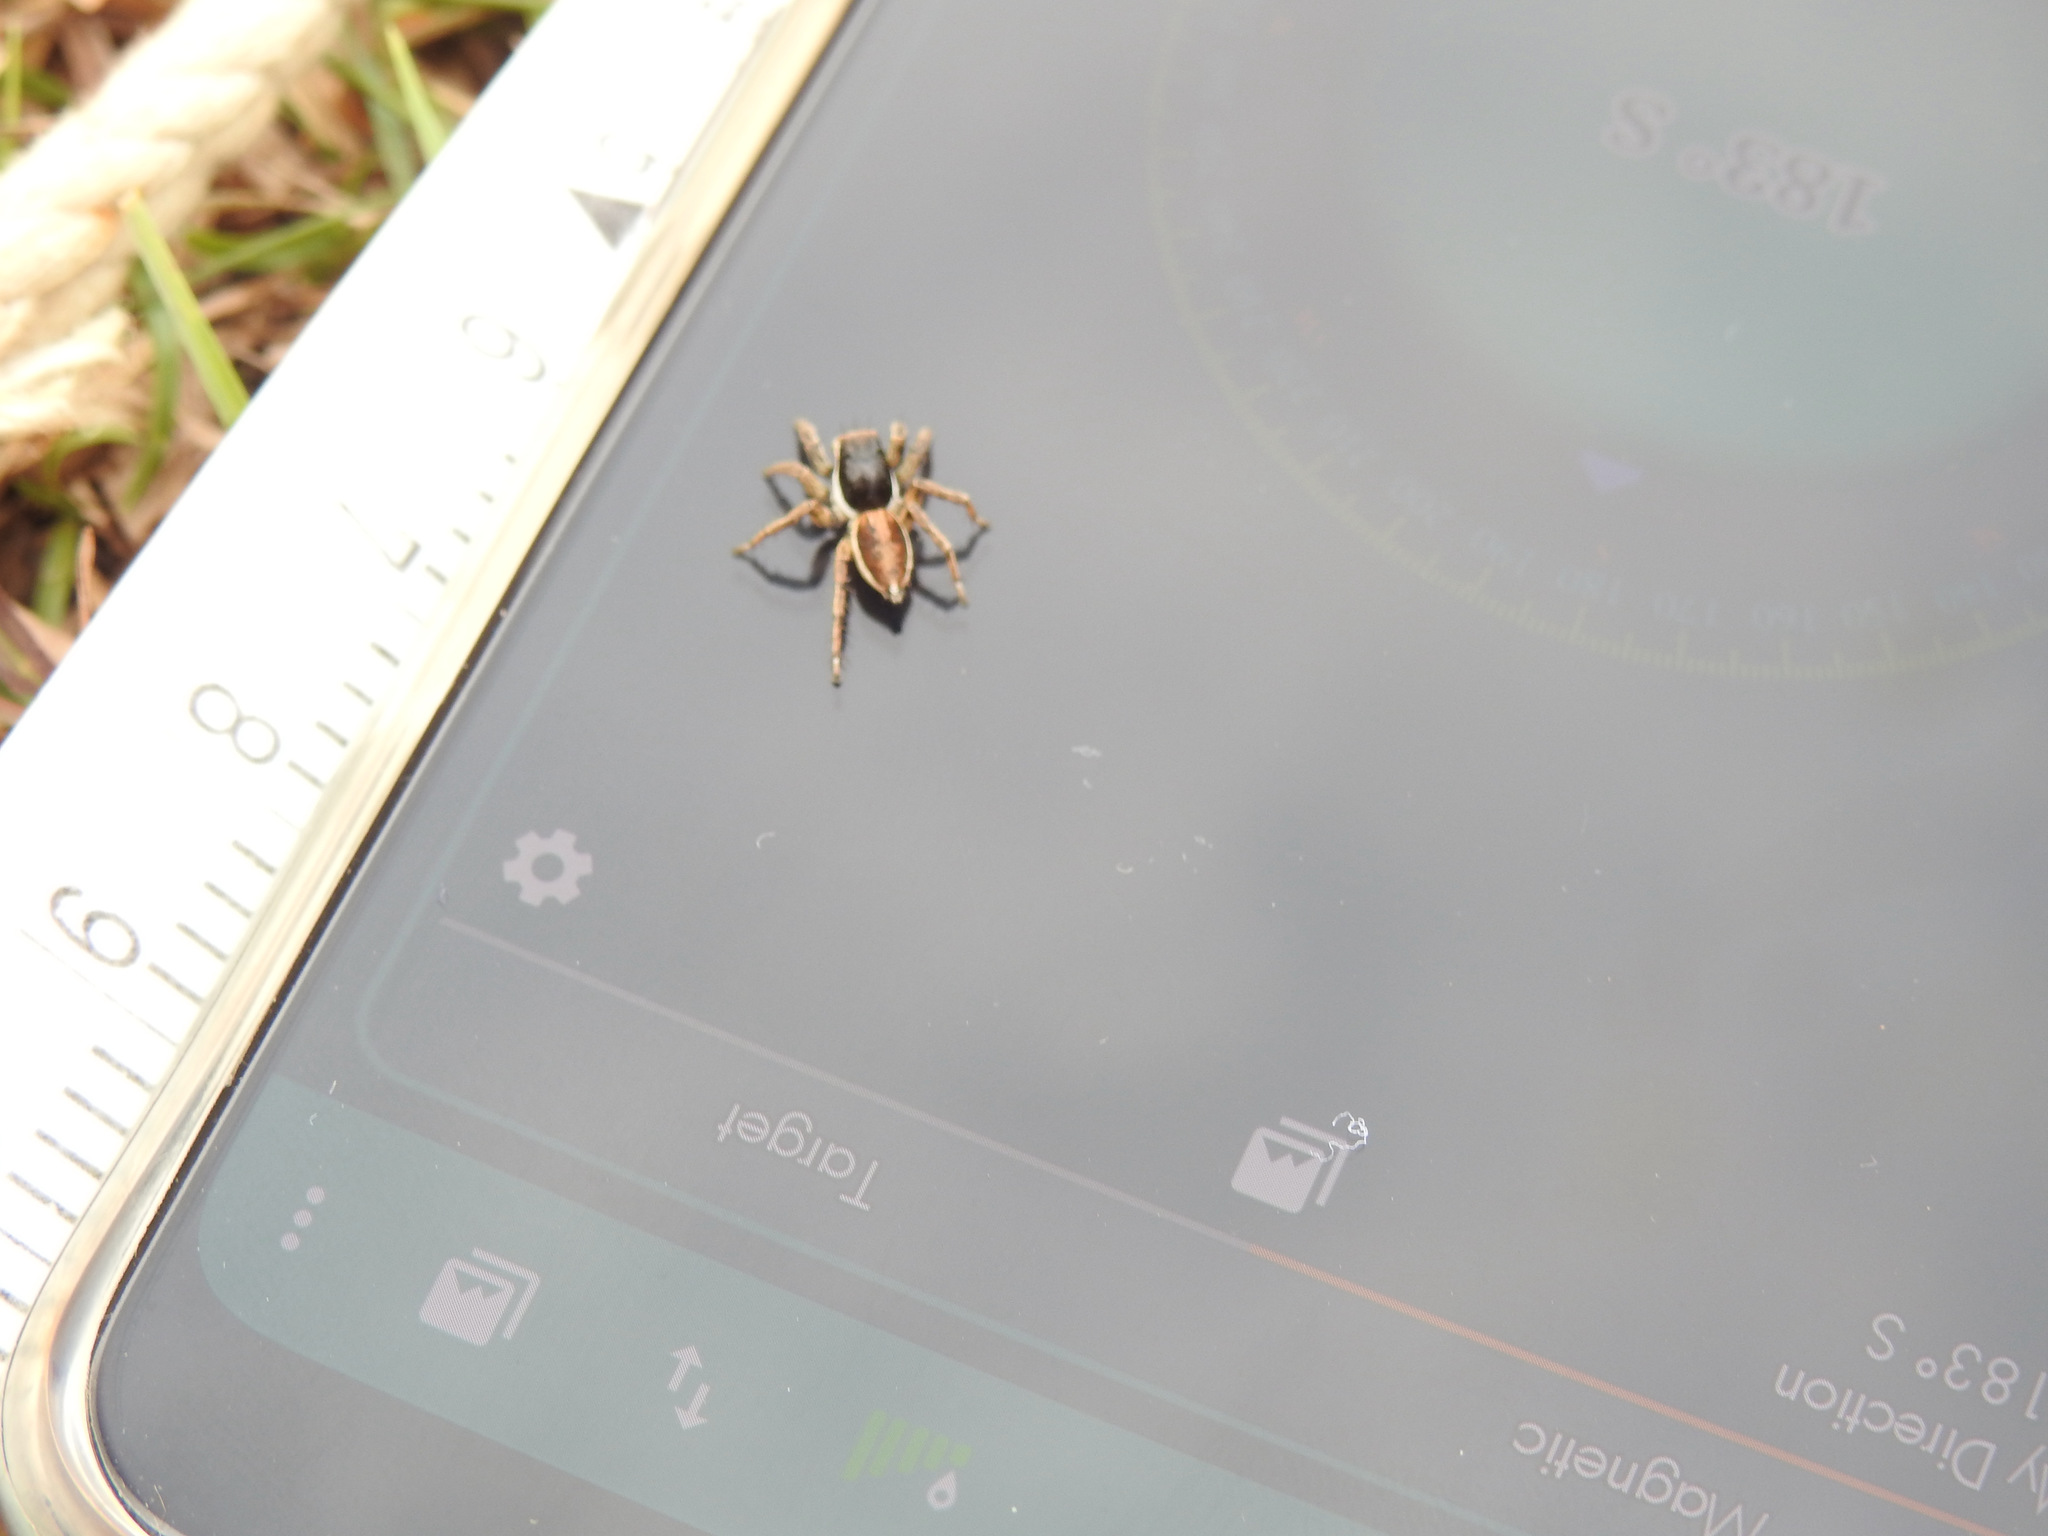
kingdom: Animalia
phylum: Arthropoda
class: Arachnida
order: Araneae
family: Salticidae
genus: Langona
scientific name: Langona tigrina
